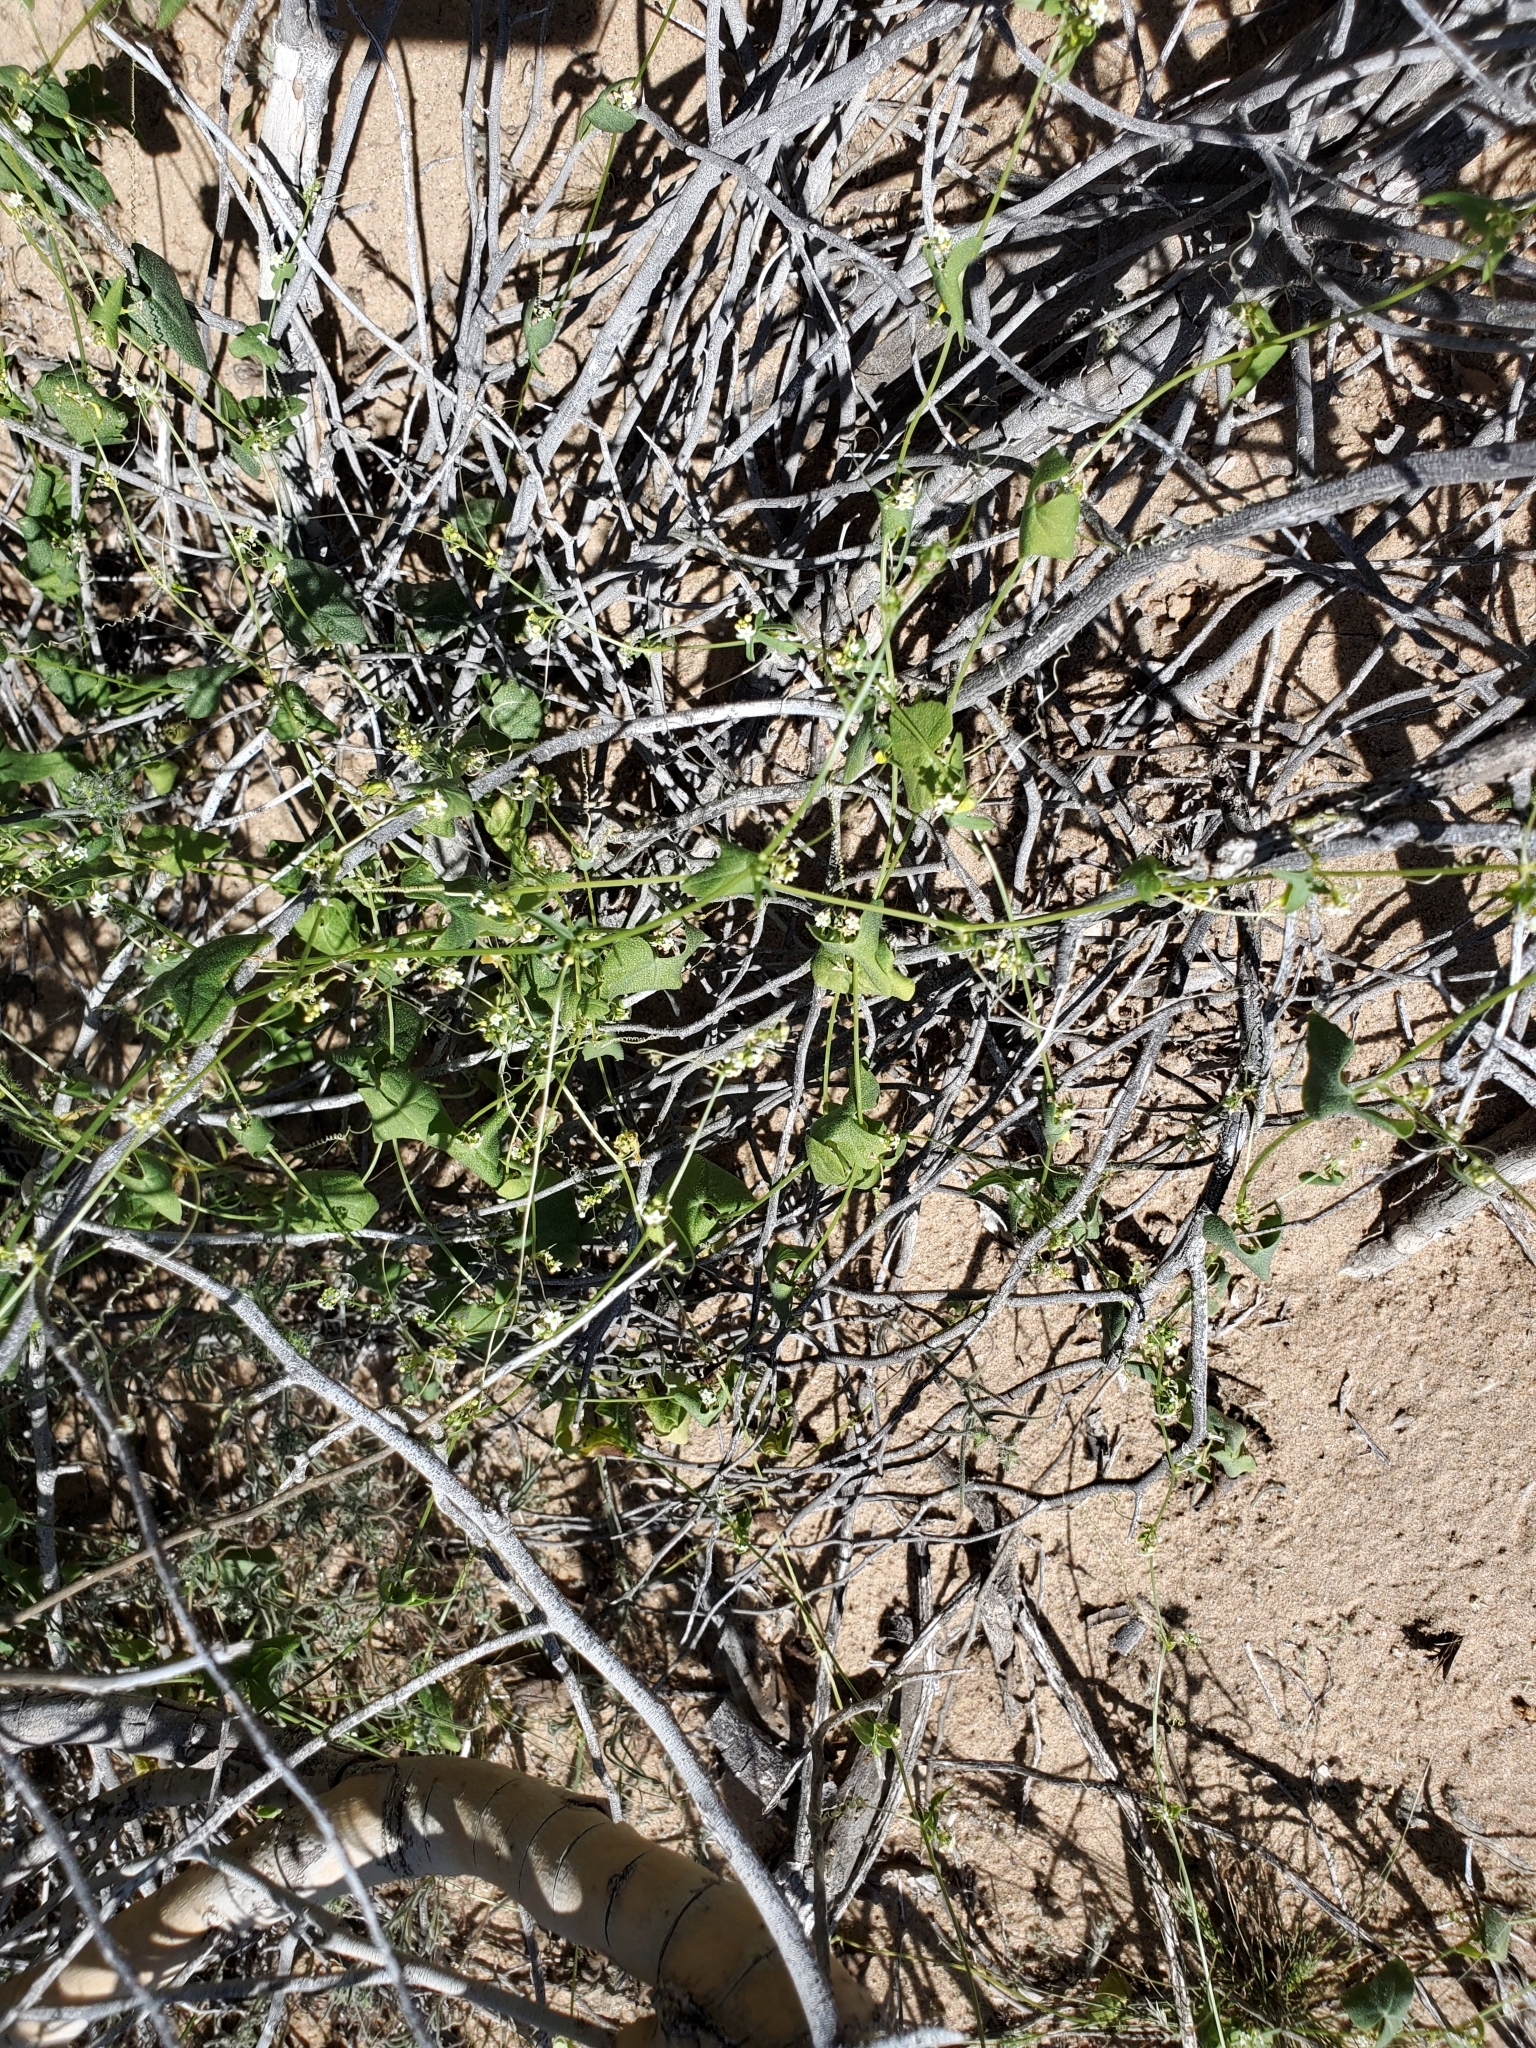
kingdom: Plantae
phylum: Tracheophyta
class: Magnoliopsida
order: Cucurbitales
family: Cucurbitaceae
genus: Echinopepon
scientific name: Echinopepon bigelovii
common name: Desert starvine
